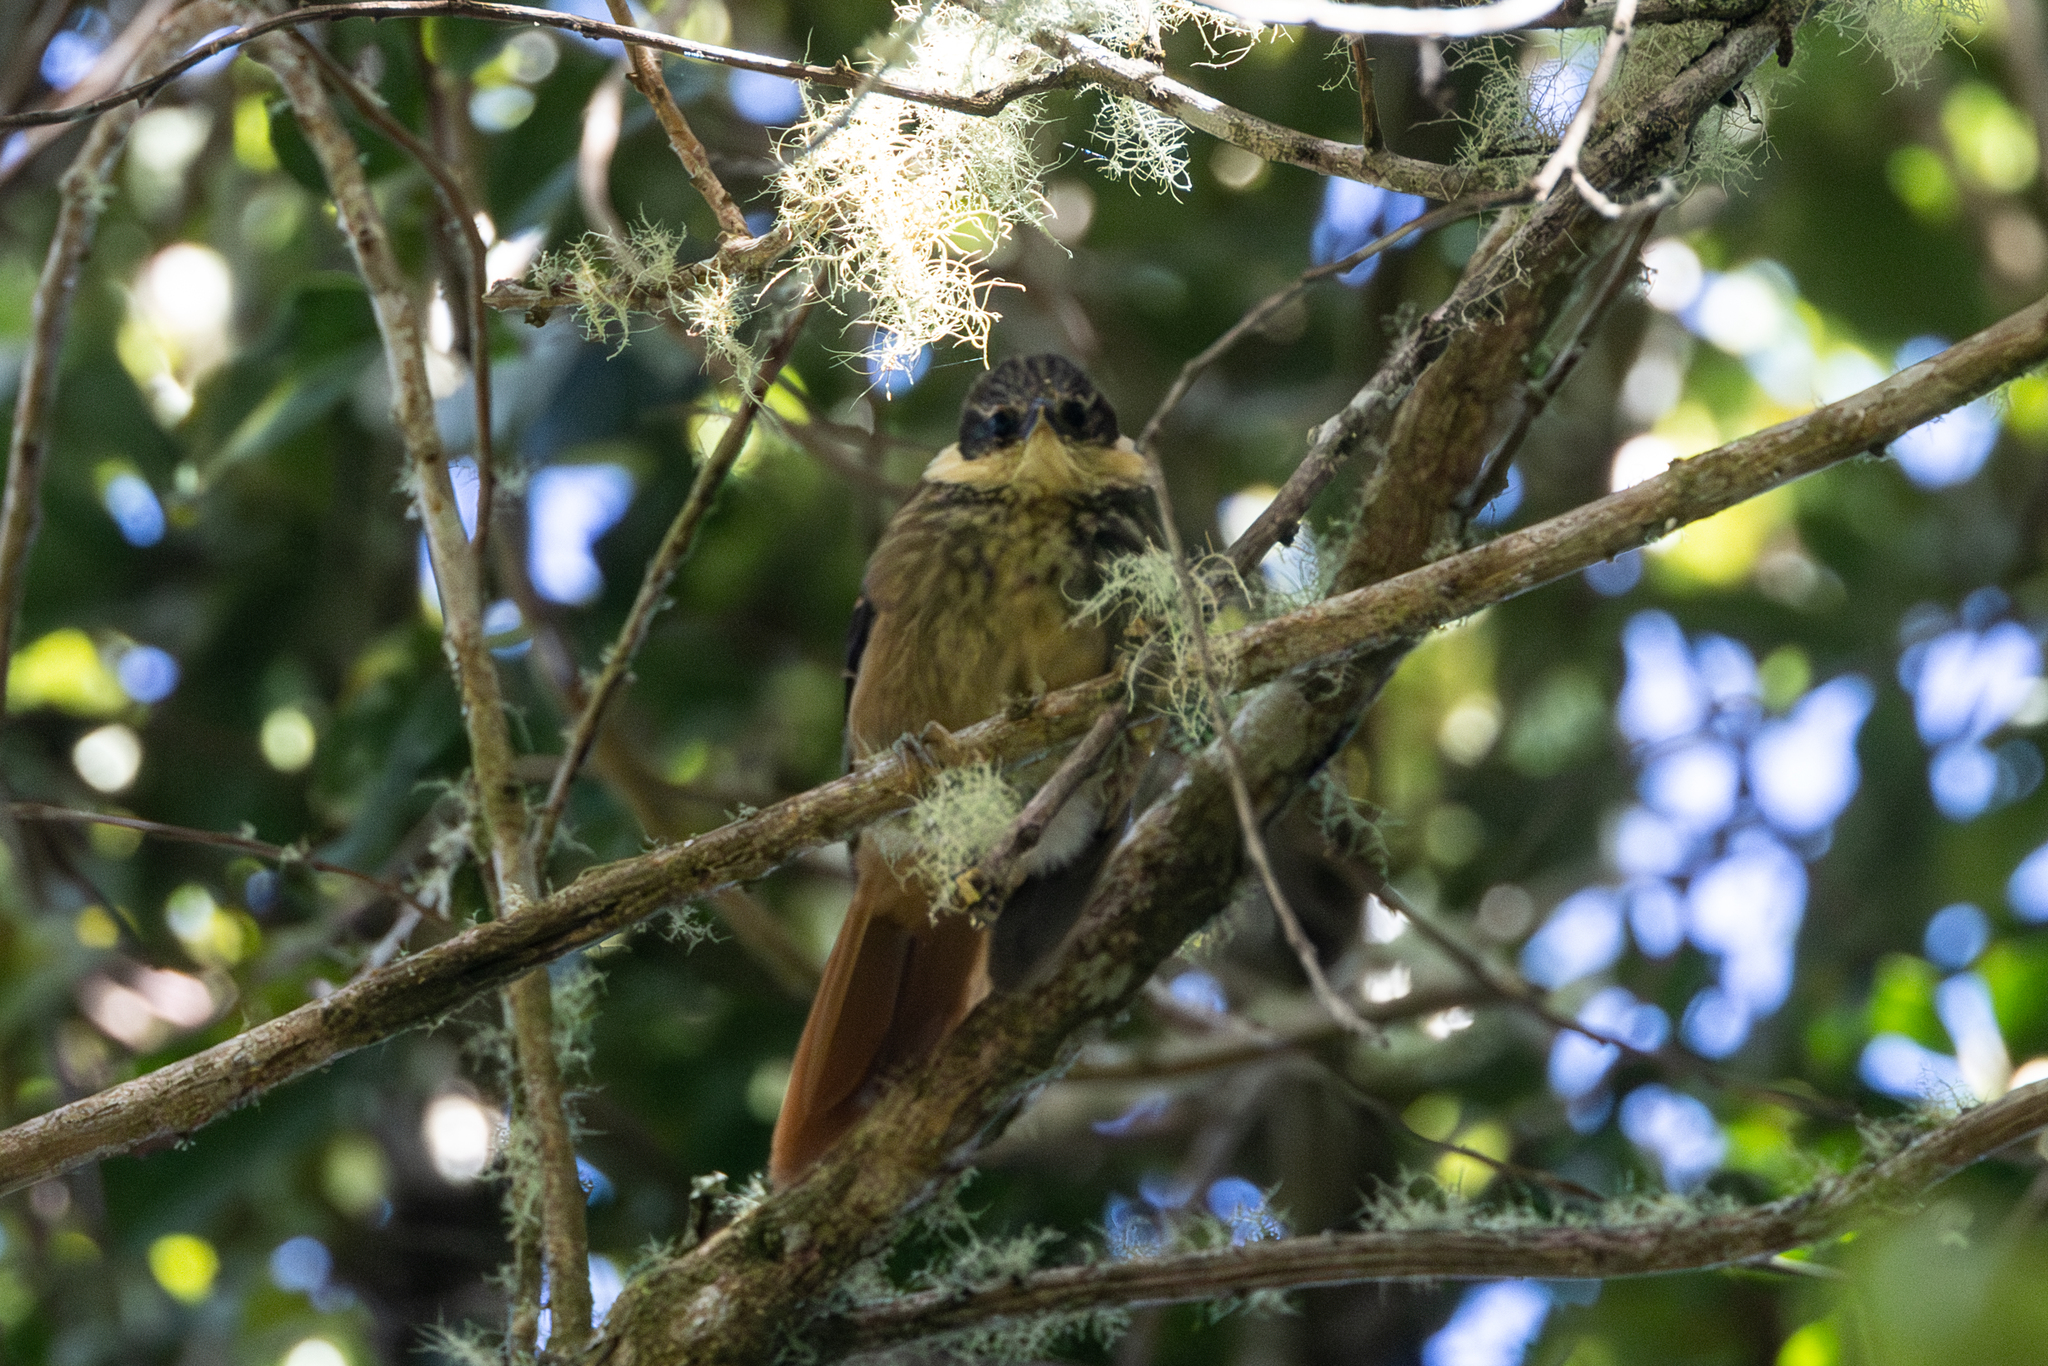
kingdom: Animalia
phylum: Chordata
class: Aves
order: Passeriformes
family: Furnariidae
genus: Pseudocolaptes
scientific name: Pseudocolaptes lawrencii
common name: Buffy tuftedcheek
